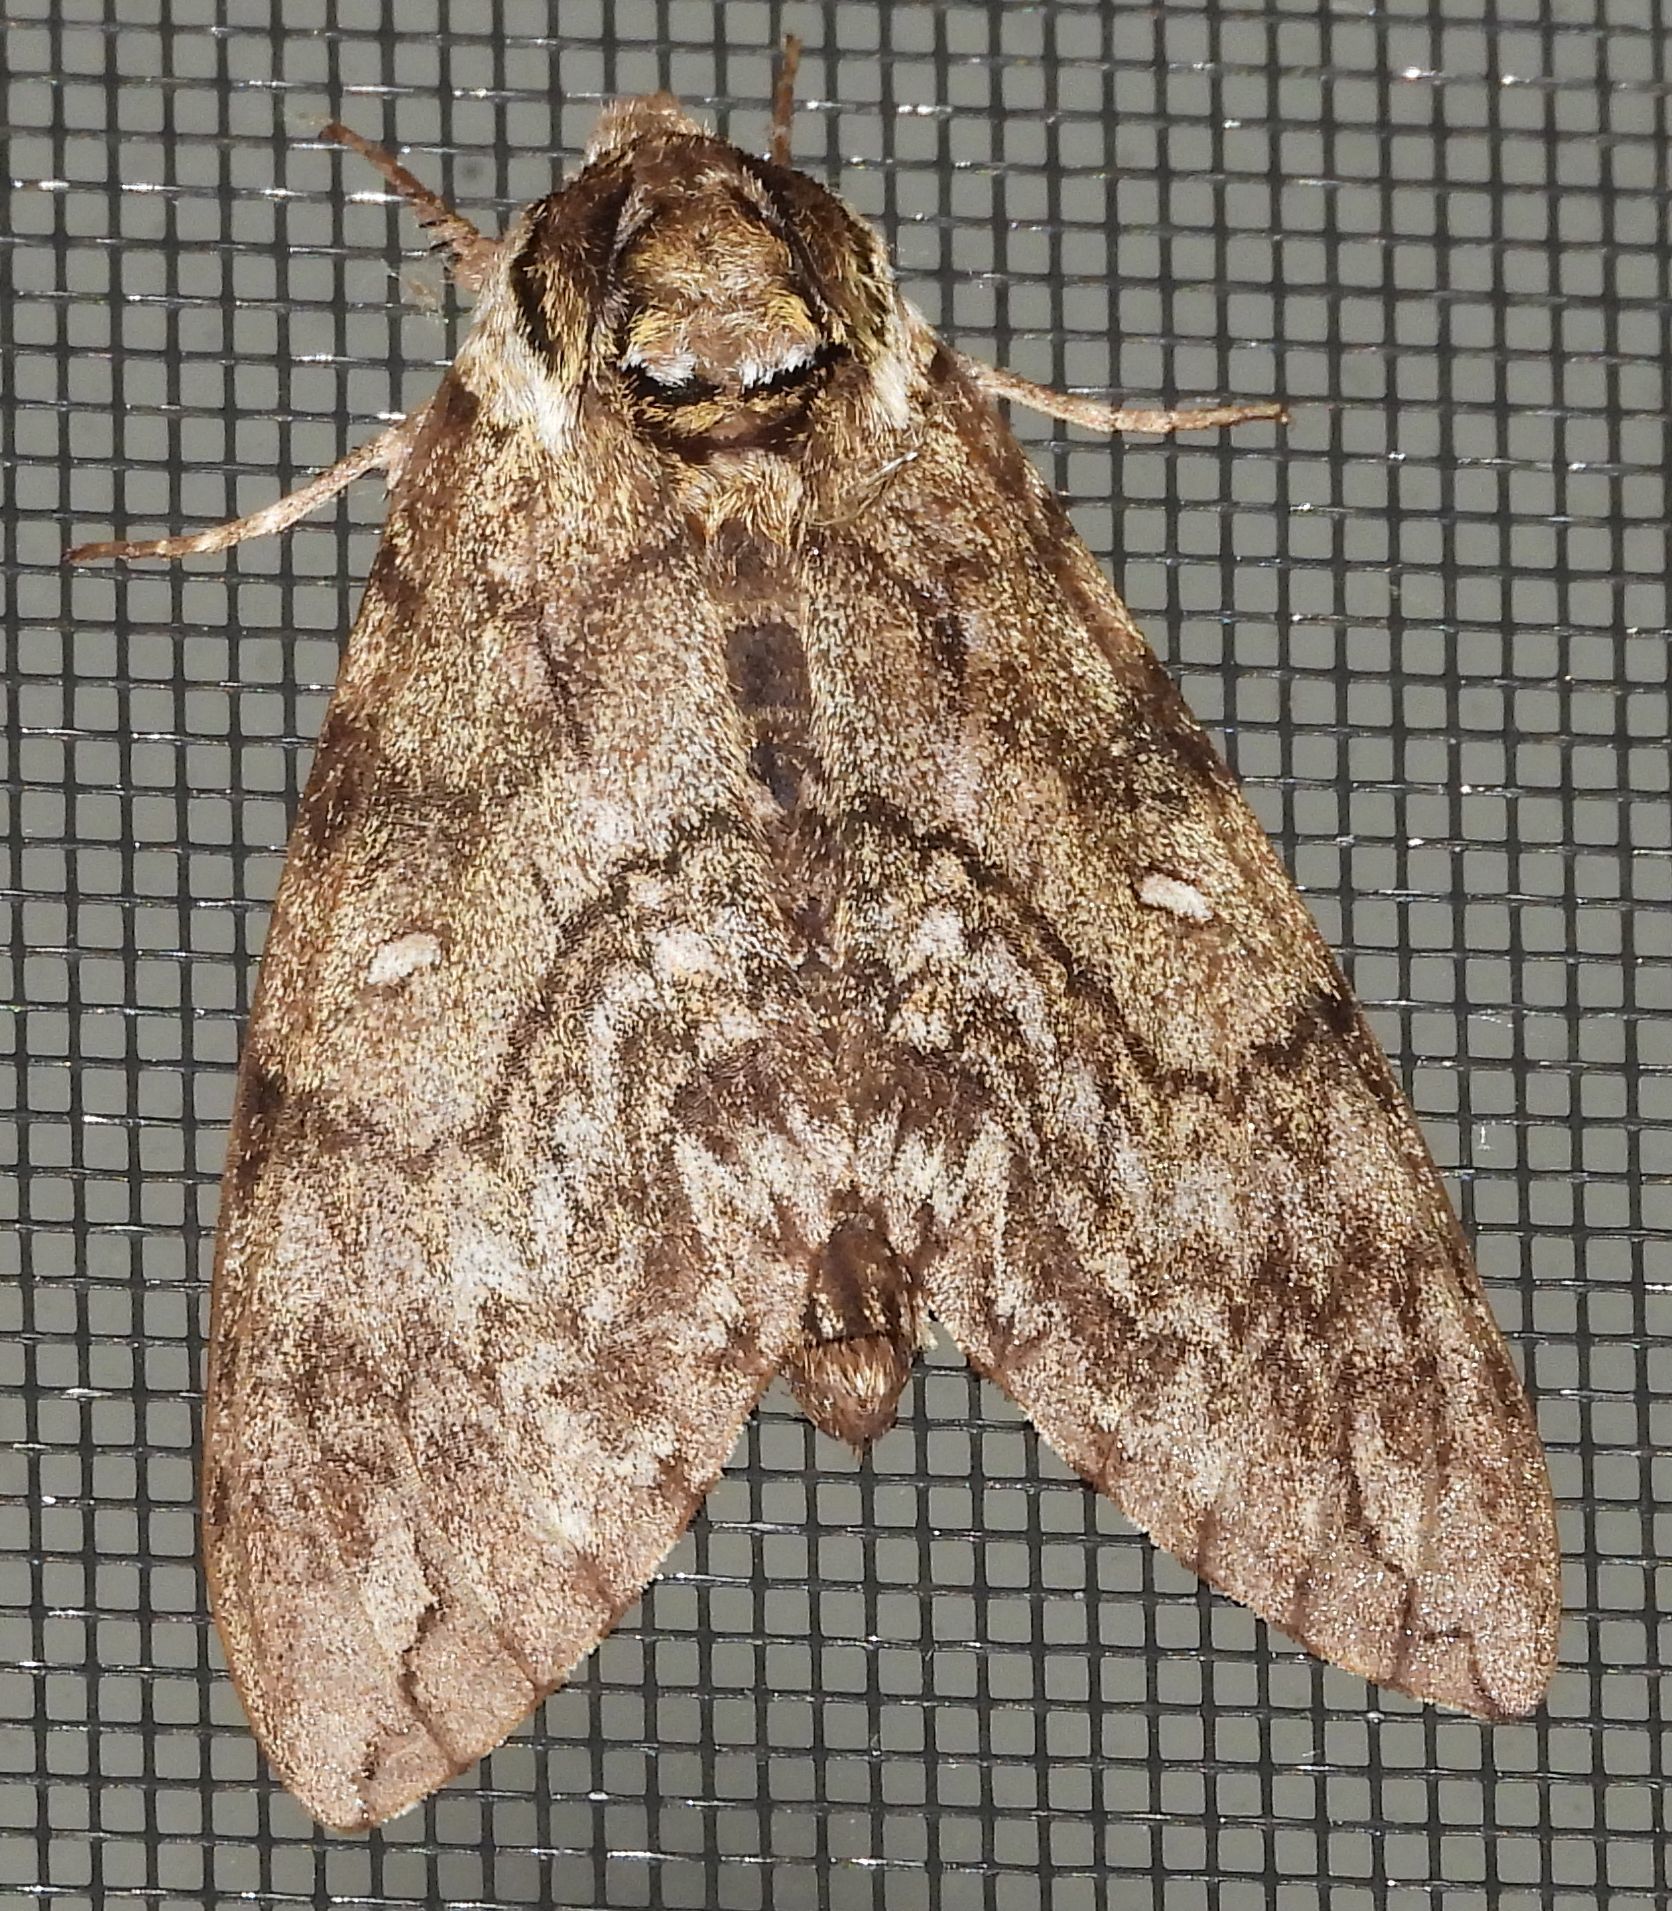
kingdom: Animalia
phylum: Arthropoda
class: Insecta
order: Lepidoptera
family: Sphingidae
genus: Ceratomia
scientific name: Ceratomia undulosa
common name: Waved sphinx
